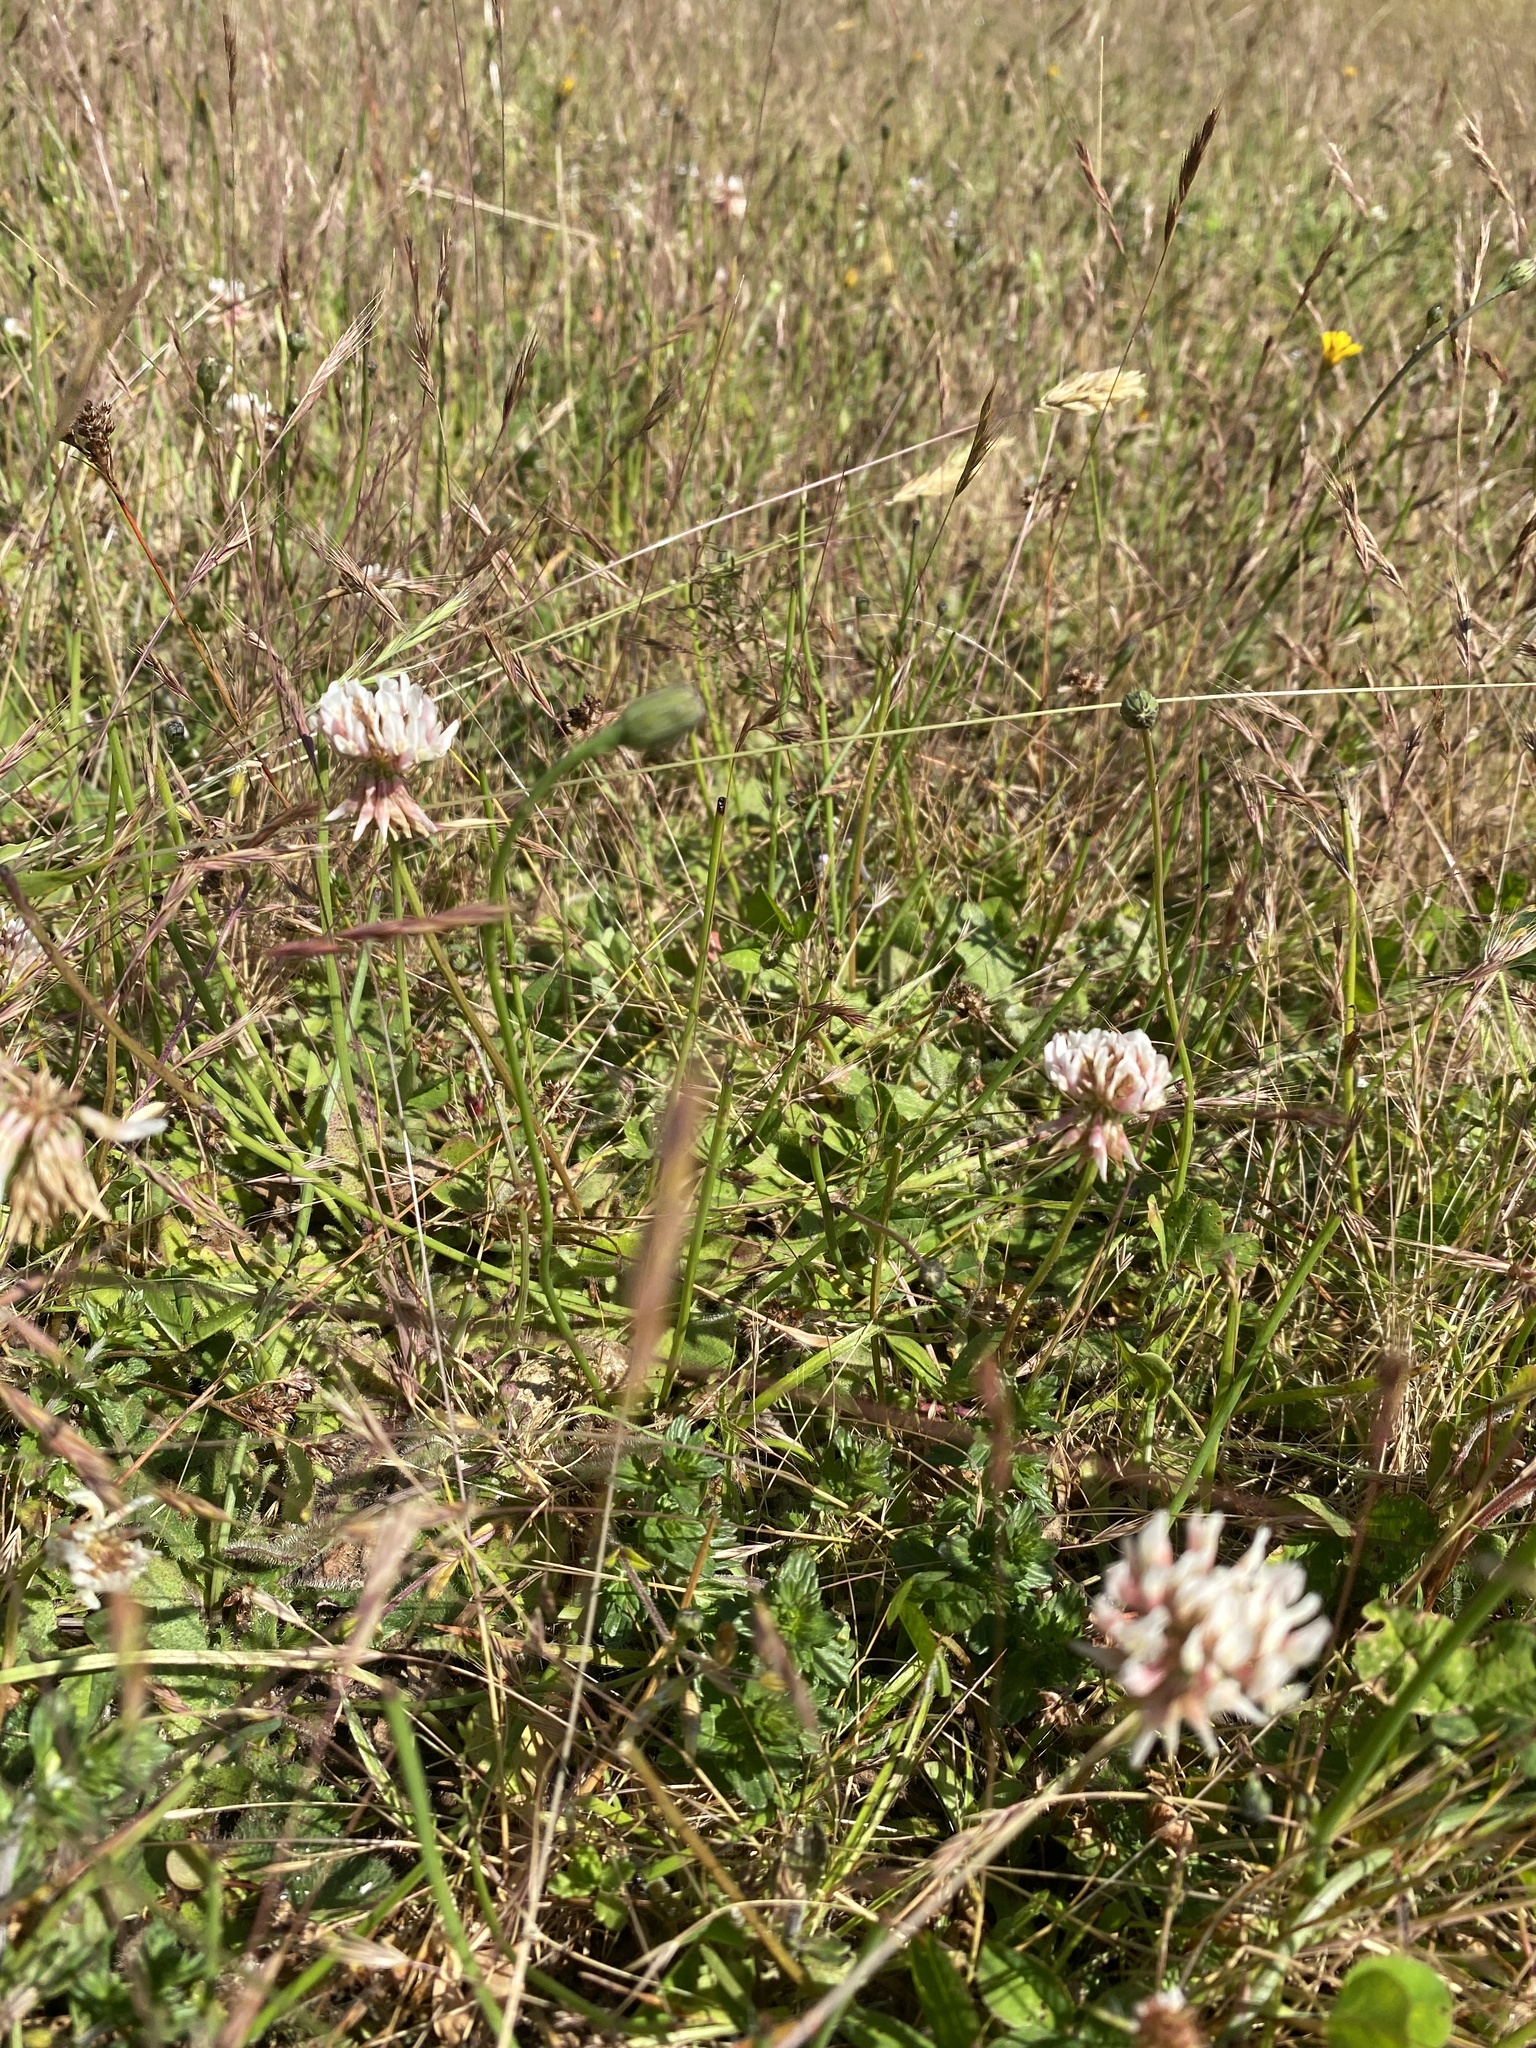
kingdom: Plantae
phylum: Tracheophyta
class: Magnoliopsida
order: Fabales
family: Fabaceae
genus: Trifolium
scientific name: Trifolium repens
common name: White clover
